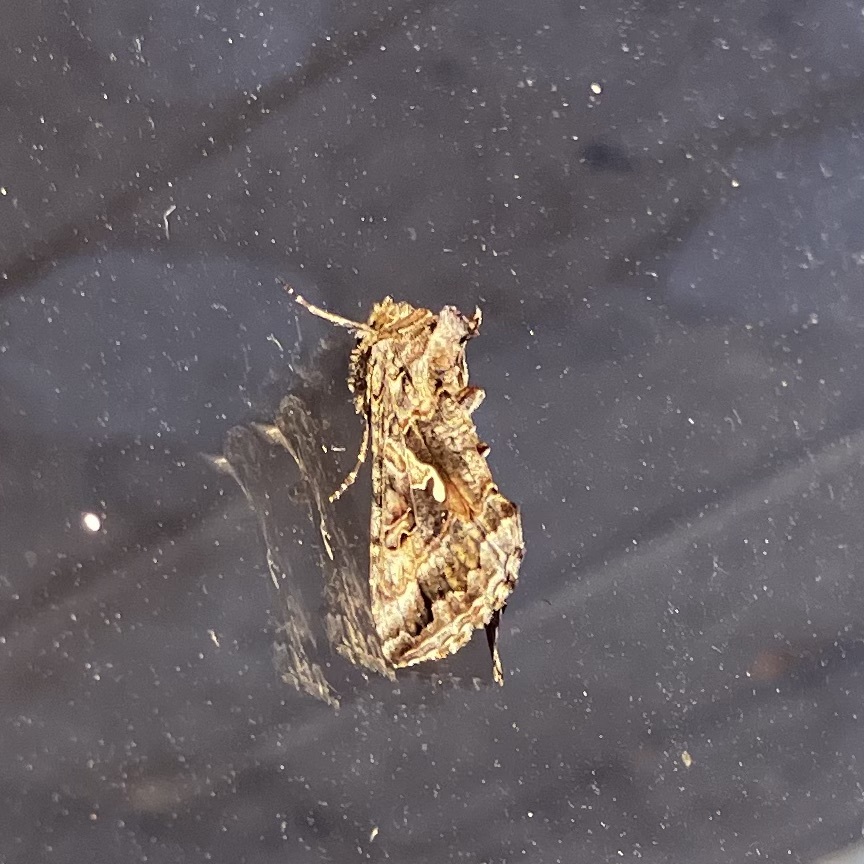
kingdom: Animalia
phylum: Arthropoda
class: Insecta
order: Lepidoptera
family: Noctuidae
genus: Autographa
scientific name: Autographa californica
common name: Alfalfa looper
